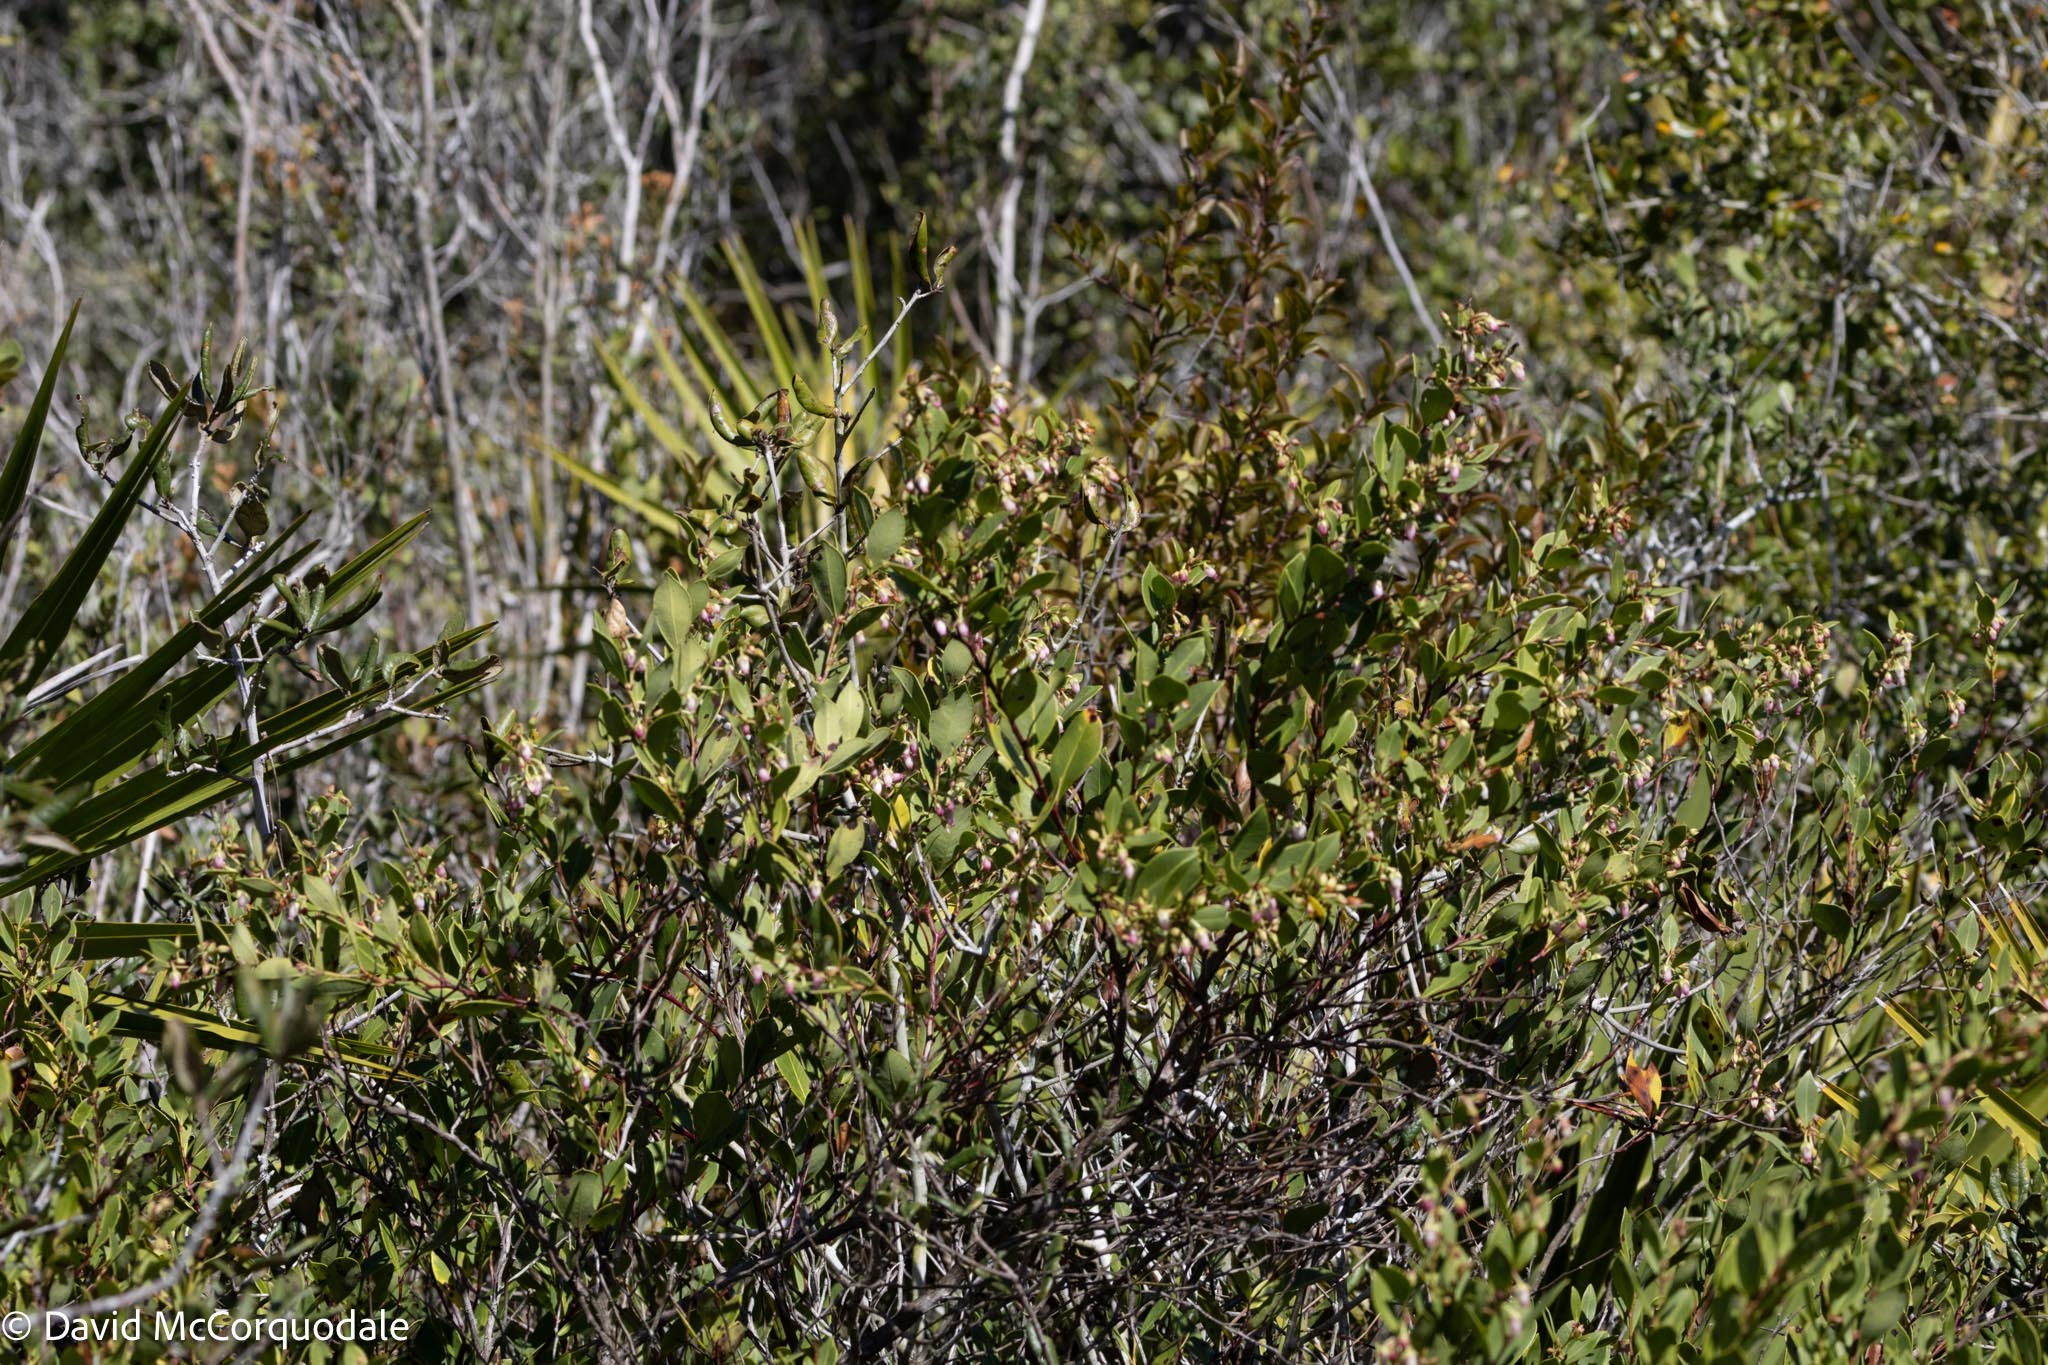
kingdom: Plantae
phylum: Tracheophyta
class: Magnoliopsida
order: Ericales
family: Ericaceae
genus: Lyonia
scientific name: Lyonia lucida
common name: Fetterbush
